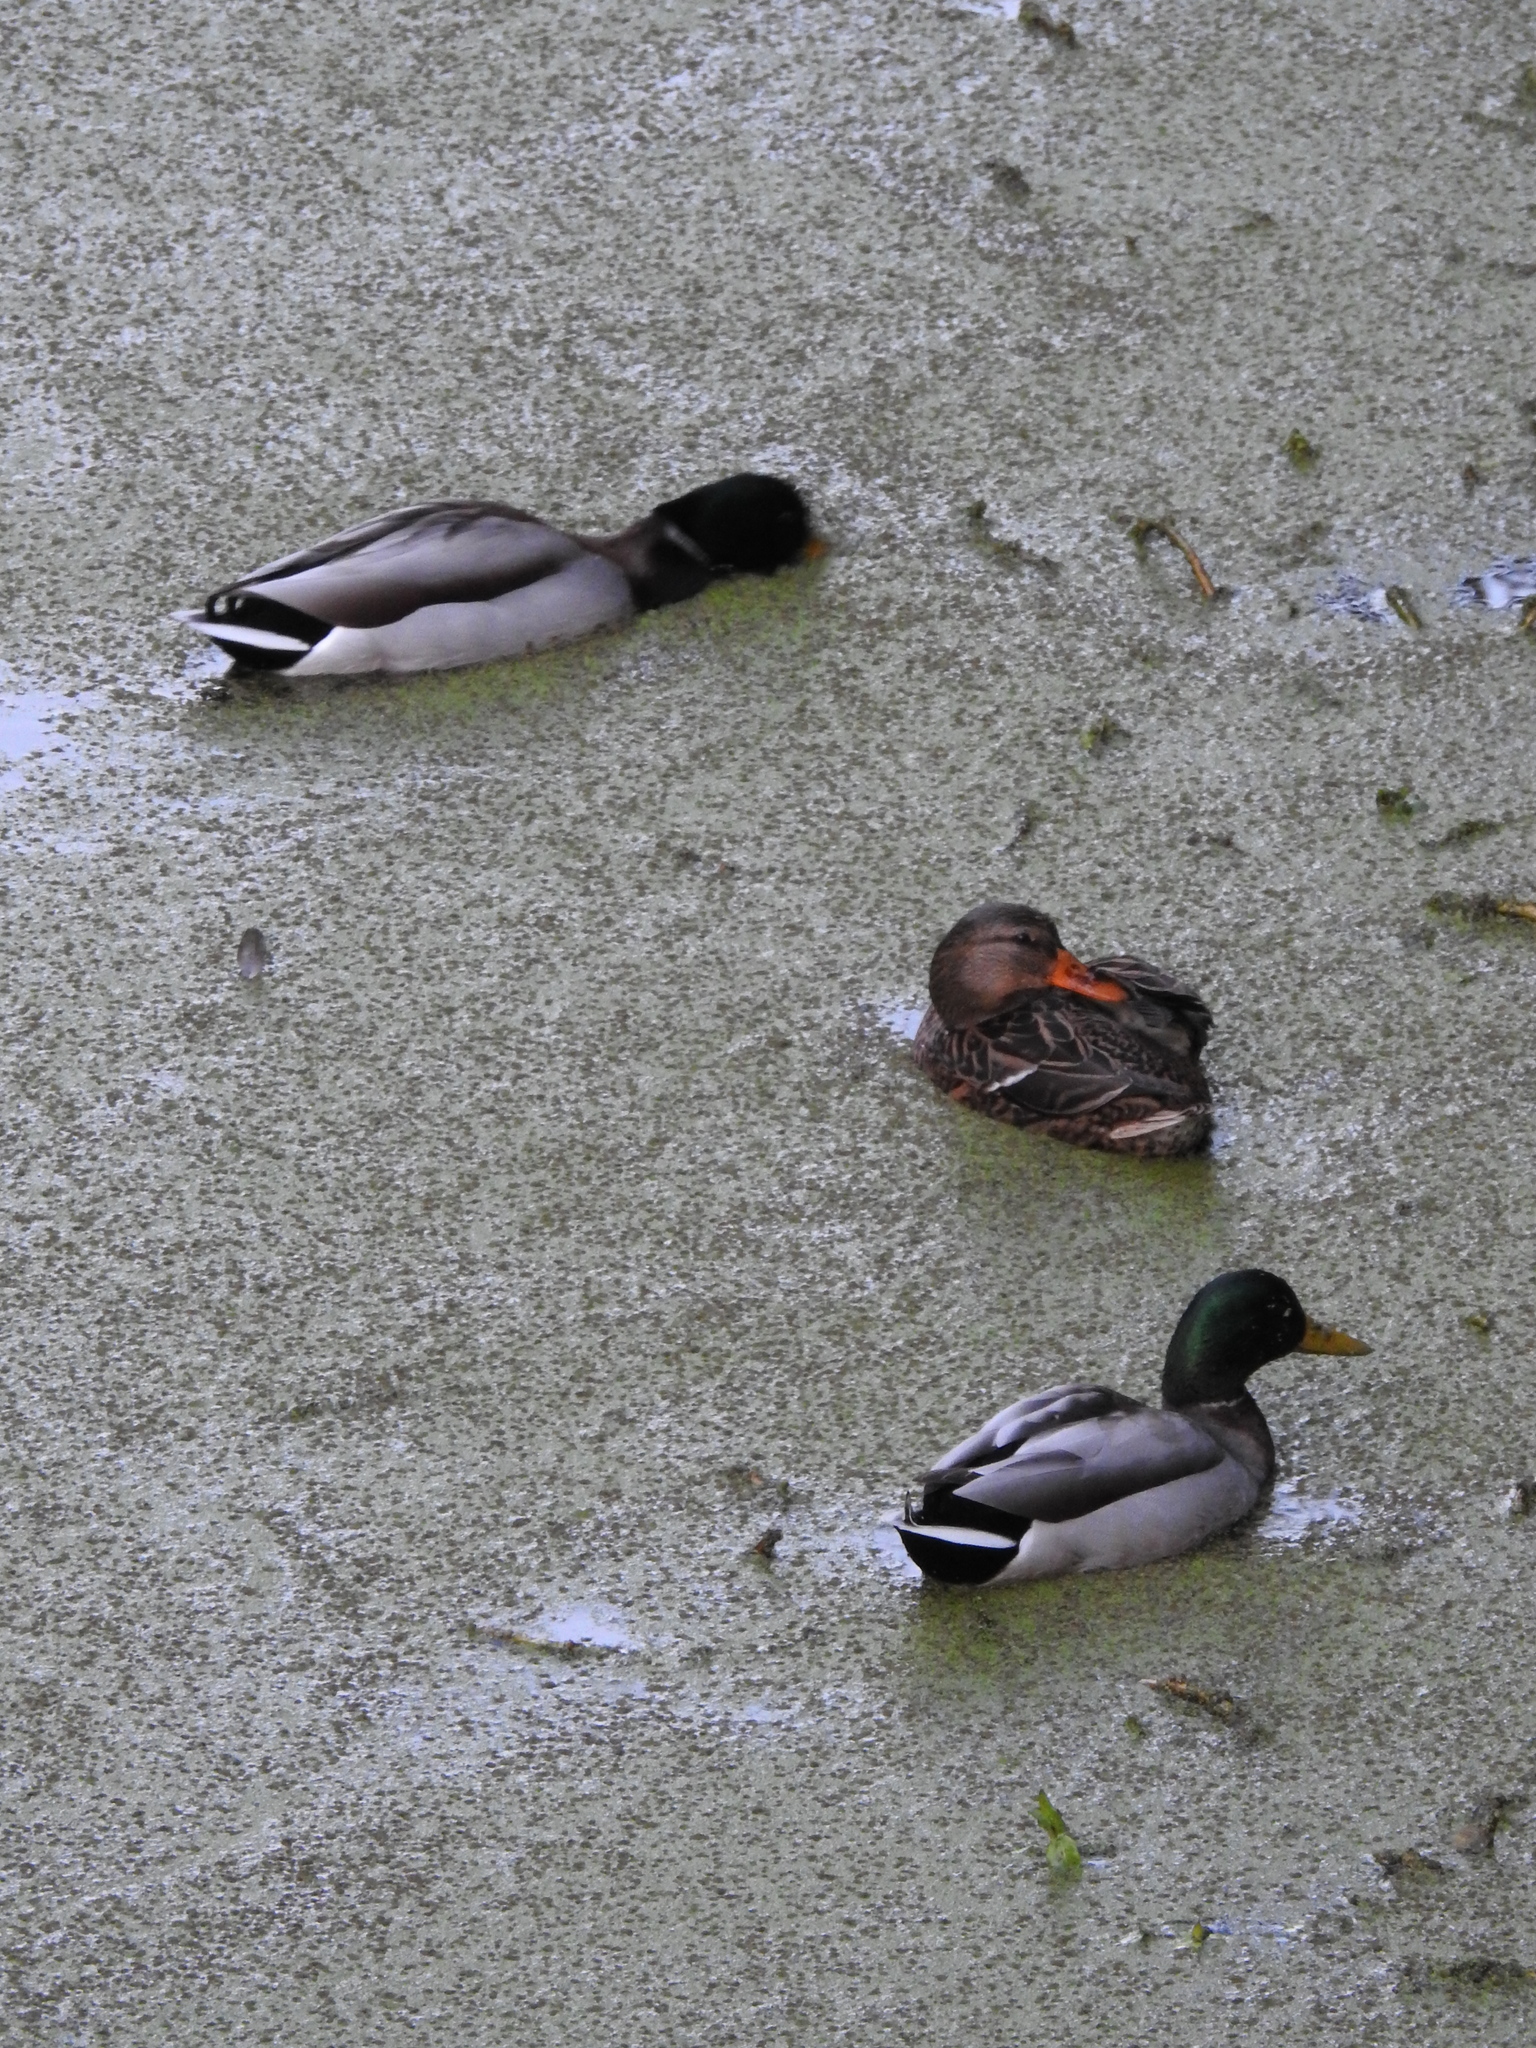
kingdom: Animalia
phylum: Chordata
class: Aves
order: Anseriformes
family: Anatidae
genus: Anas
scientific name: Anas platyrhynchos
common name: Mallard
